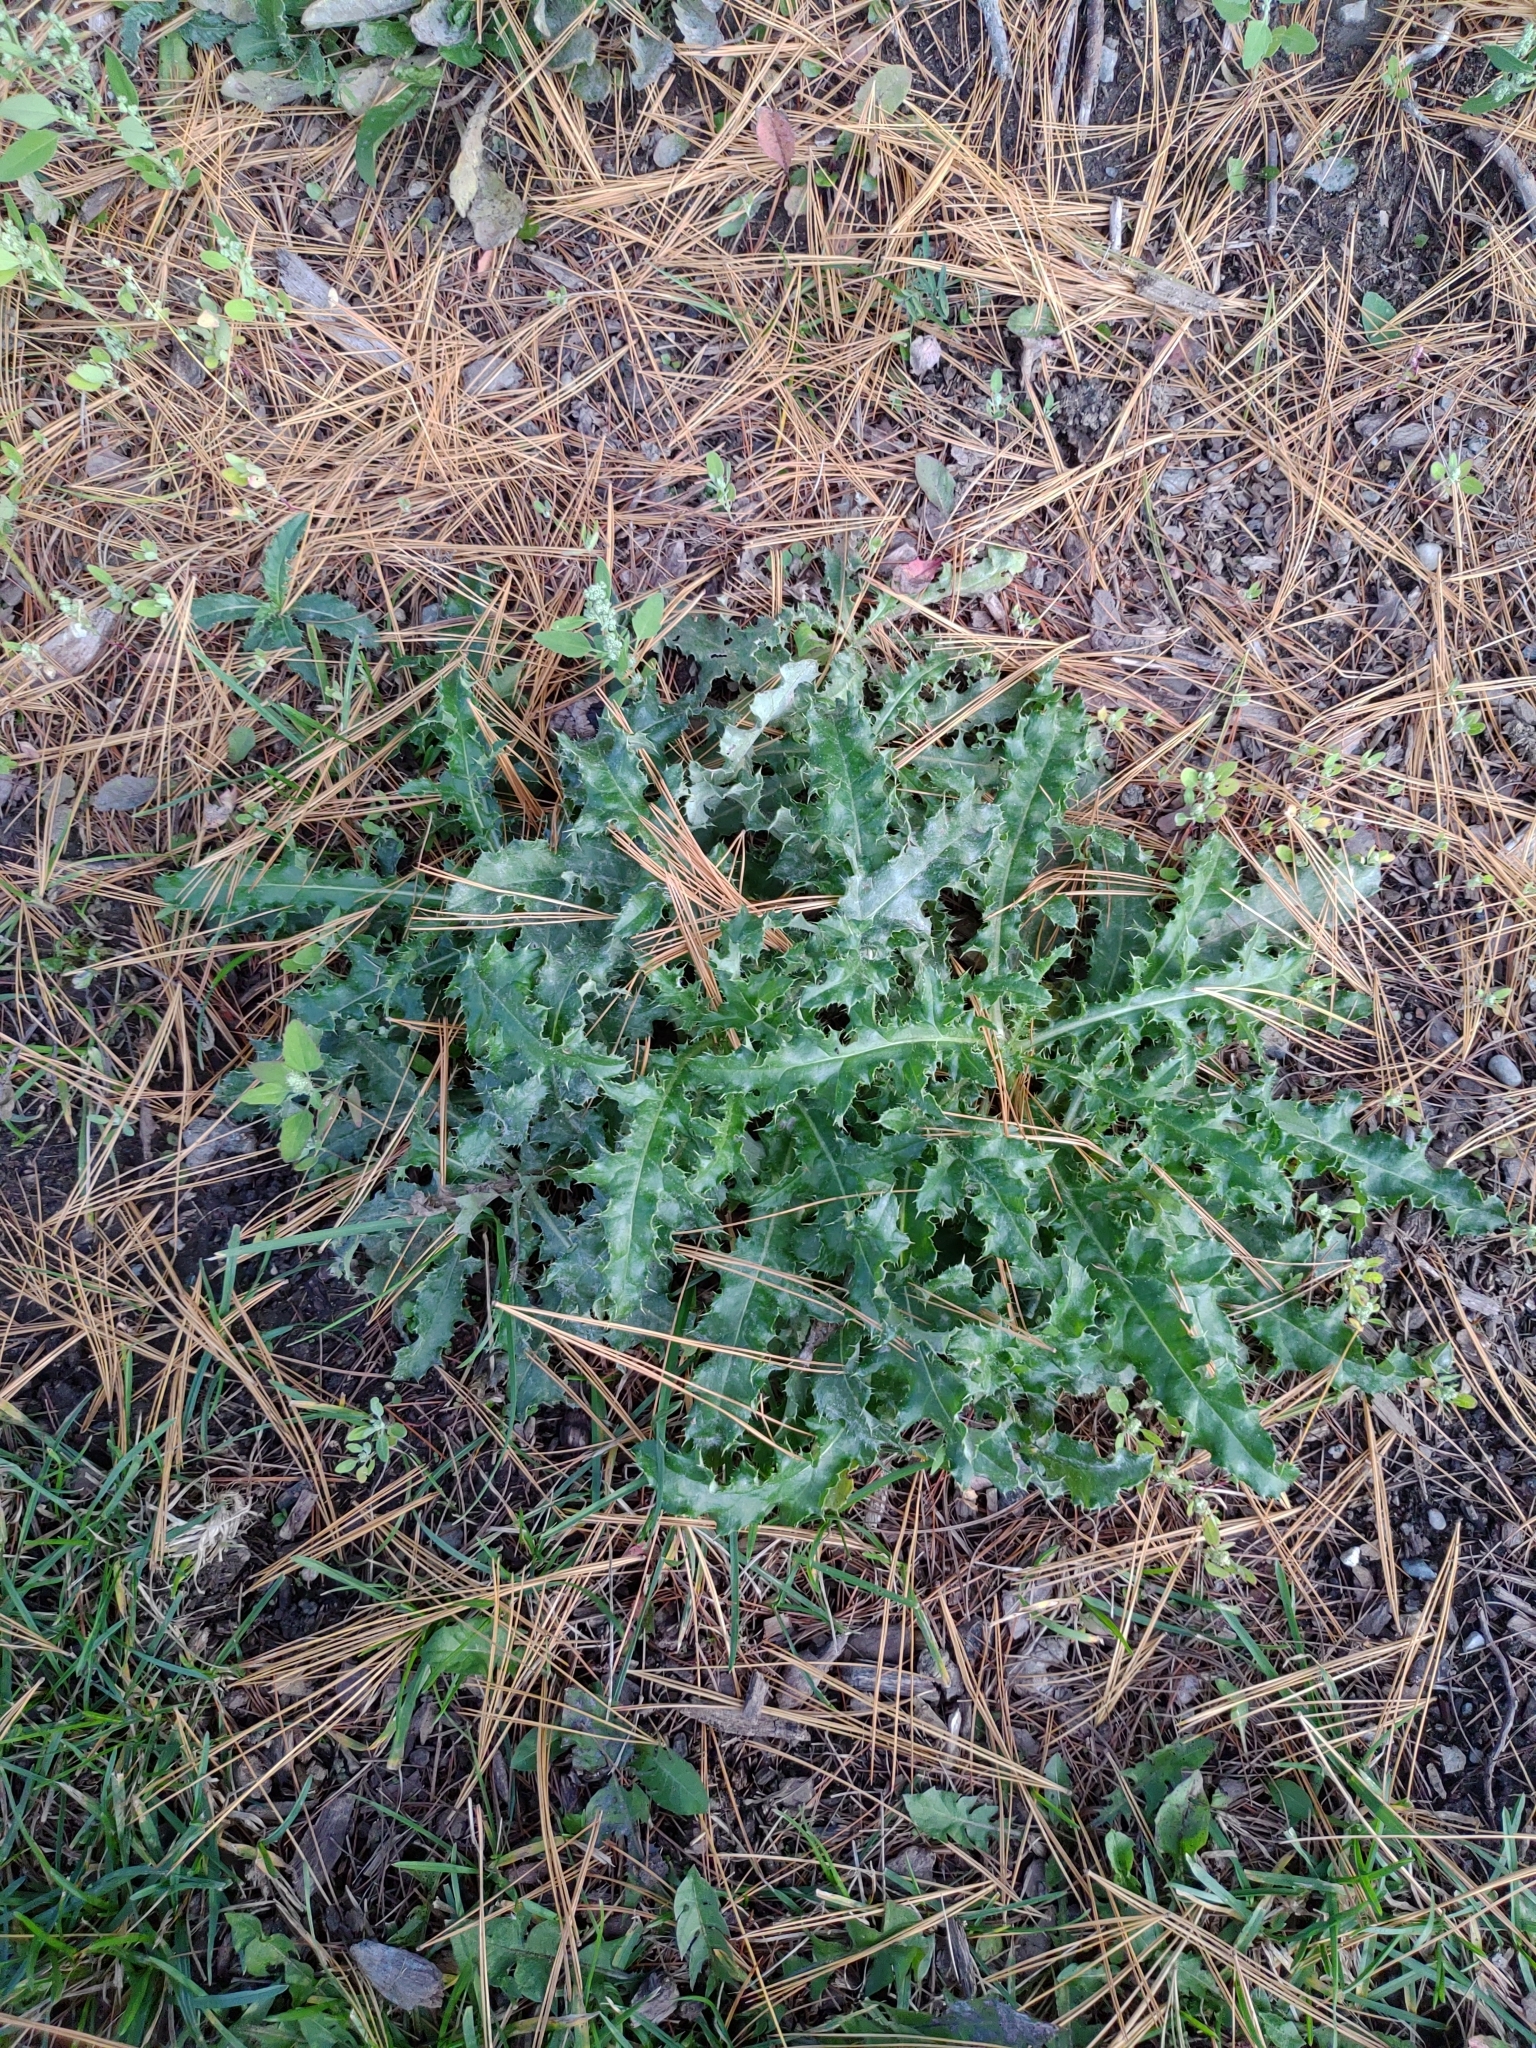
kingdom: Plantae
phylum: Tracheophyta
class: Magnoliopsida
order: Asterales
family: Asteraceae
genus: Cirsium
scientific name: Cirsium arvense
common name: Creeping thistle
